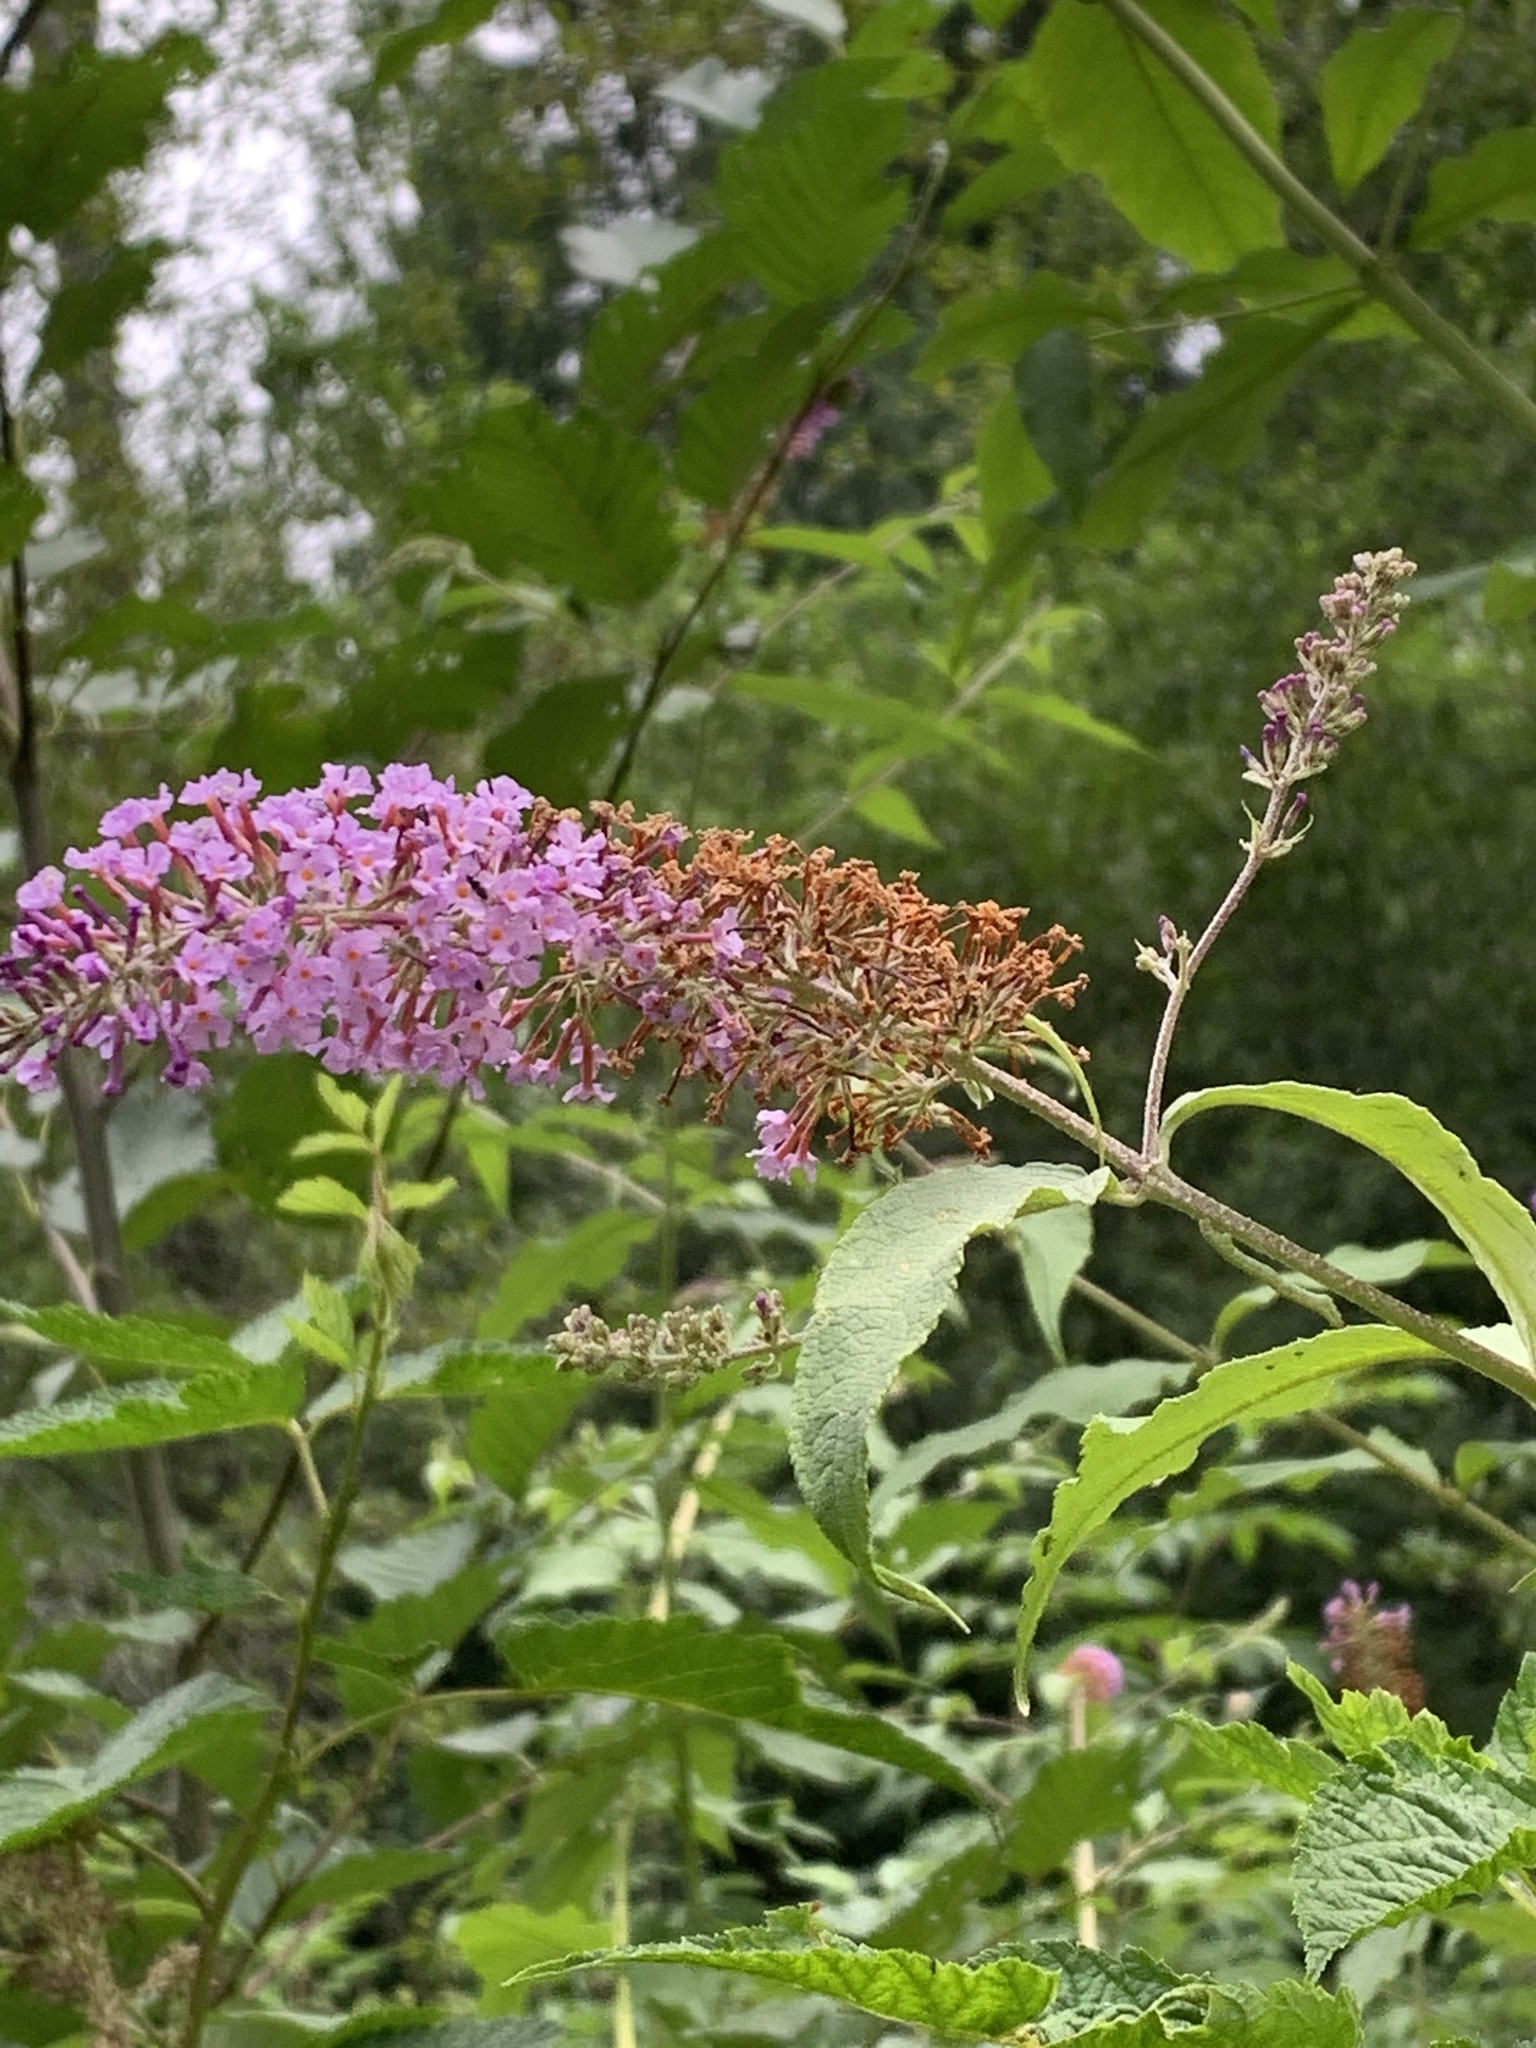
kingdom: Plantae
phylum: Tracheophyta
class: Magnoliopsida
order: Lamiales
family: Scrophulariaceae
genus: Buddleja
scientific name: Buddleja davidii
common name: Butterfly-bush
